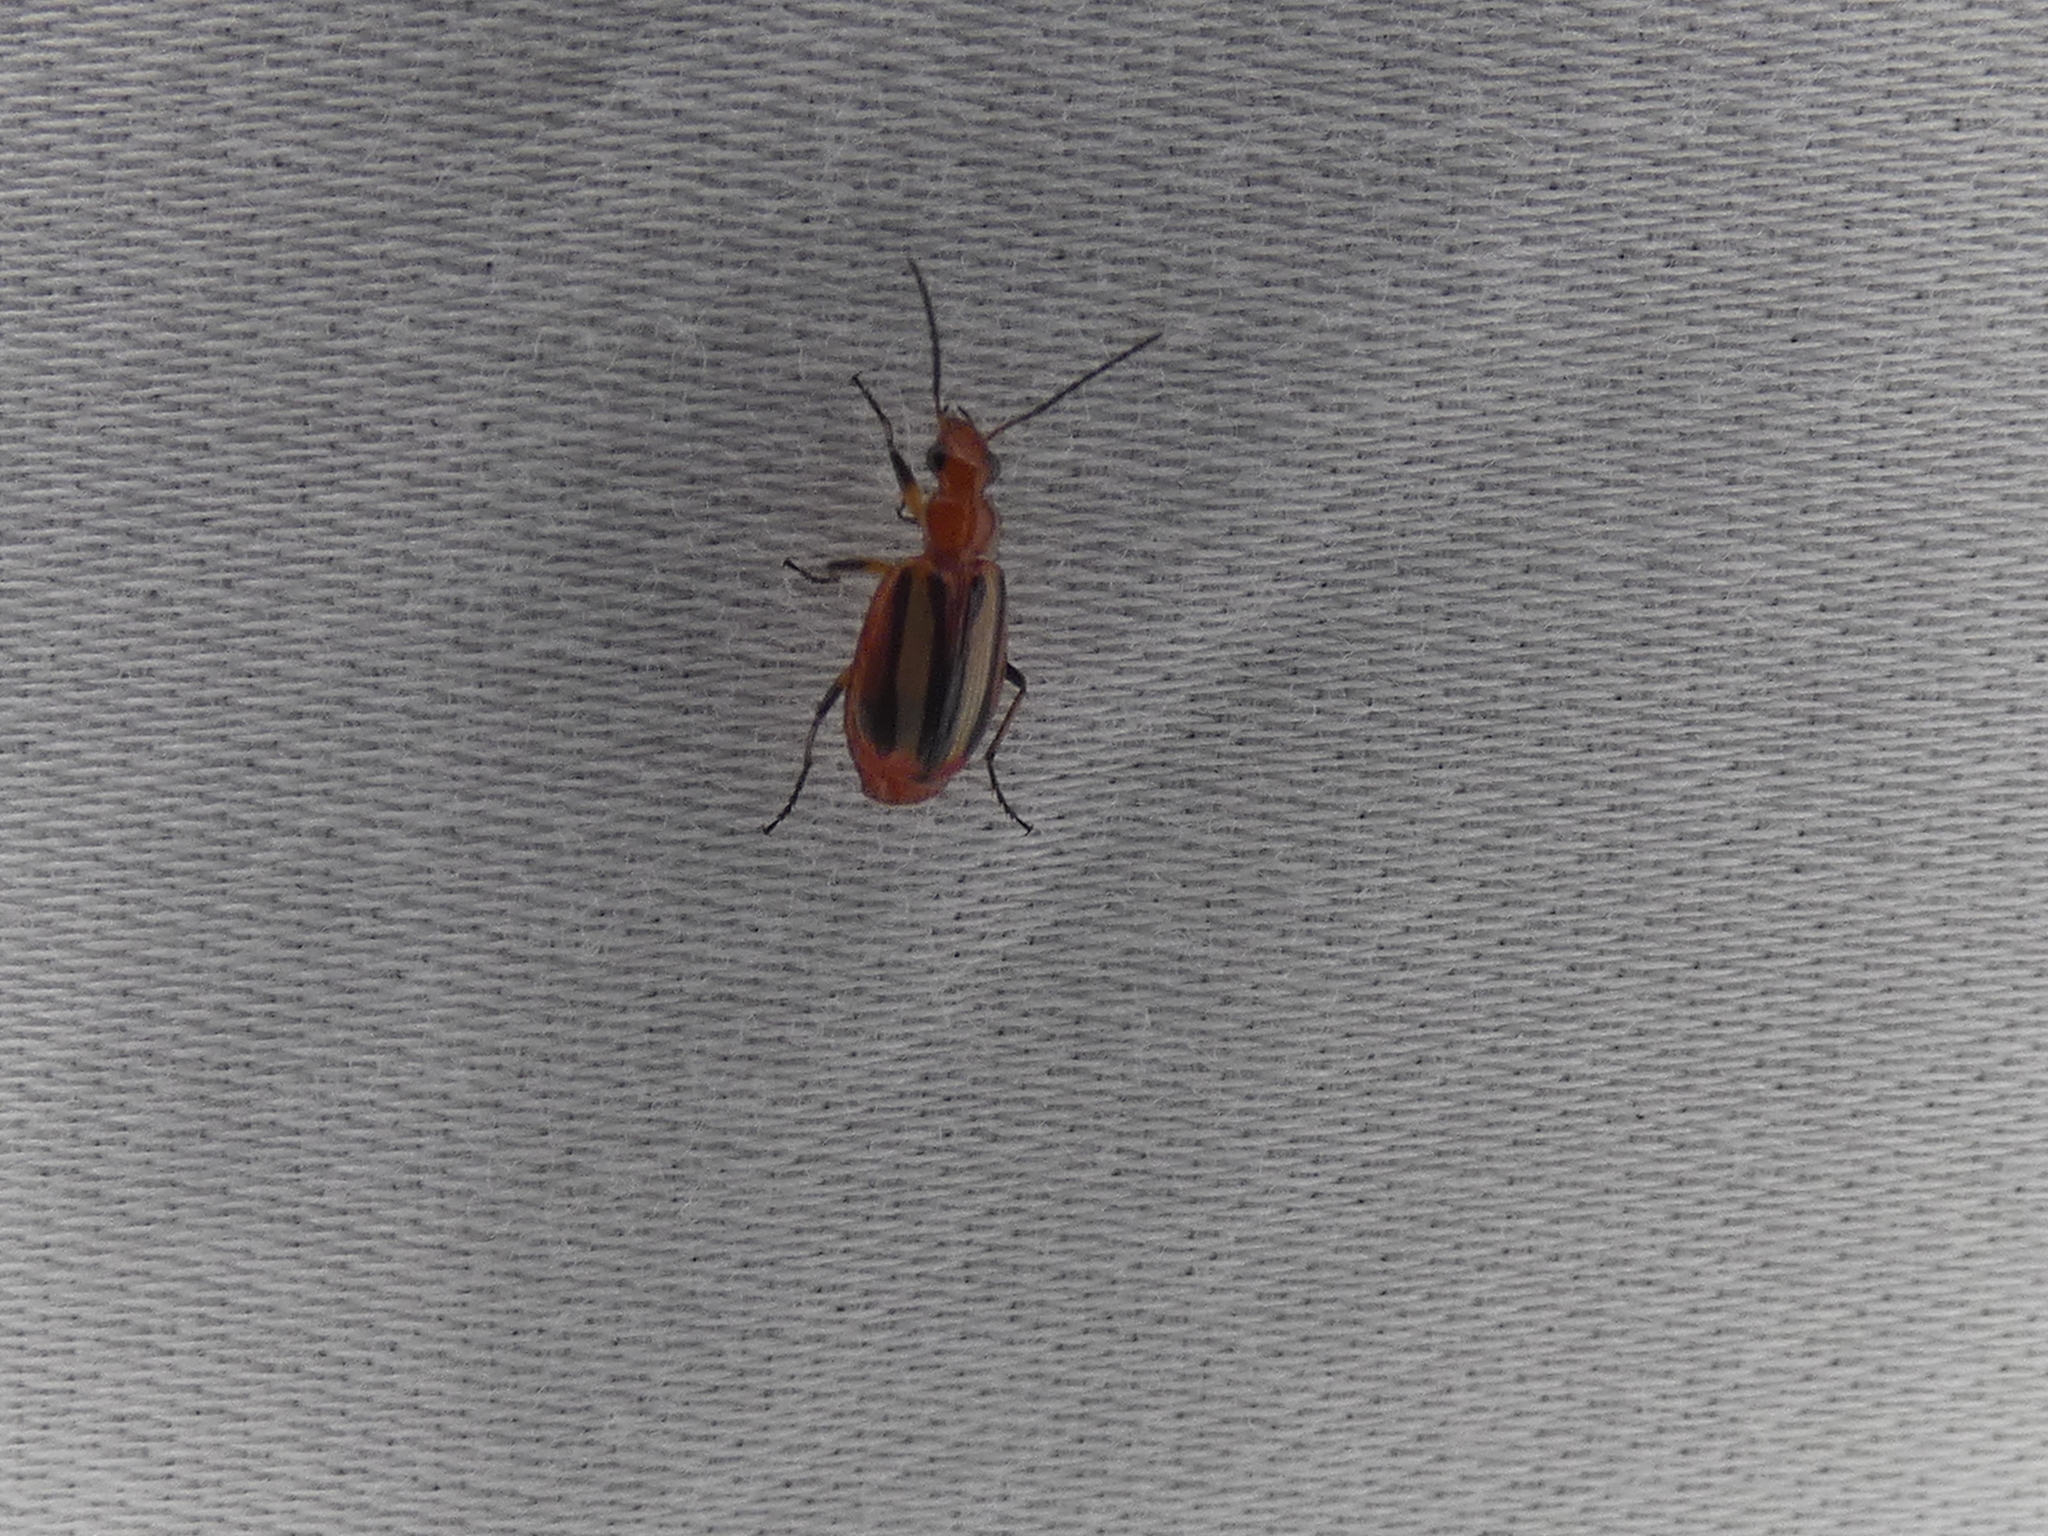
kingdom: Animalia
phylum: Arthropoda
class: Insecta
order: Coleoptera
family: Carabidae
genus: Lebia
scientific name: Lebia vittata
